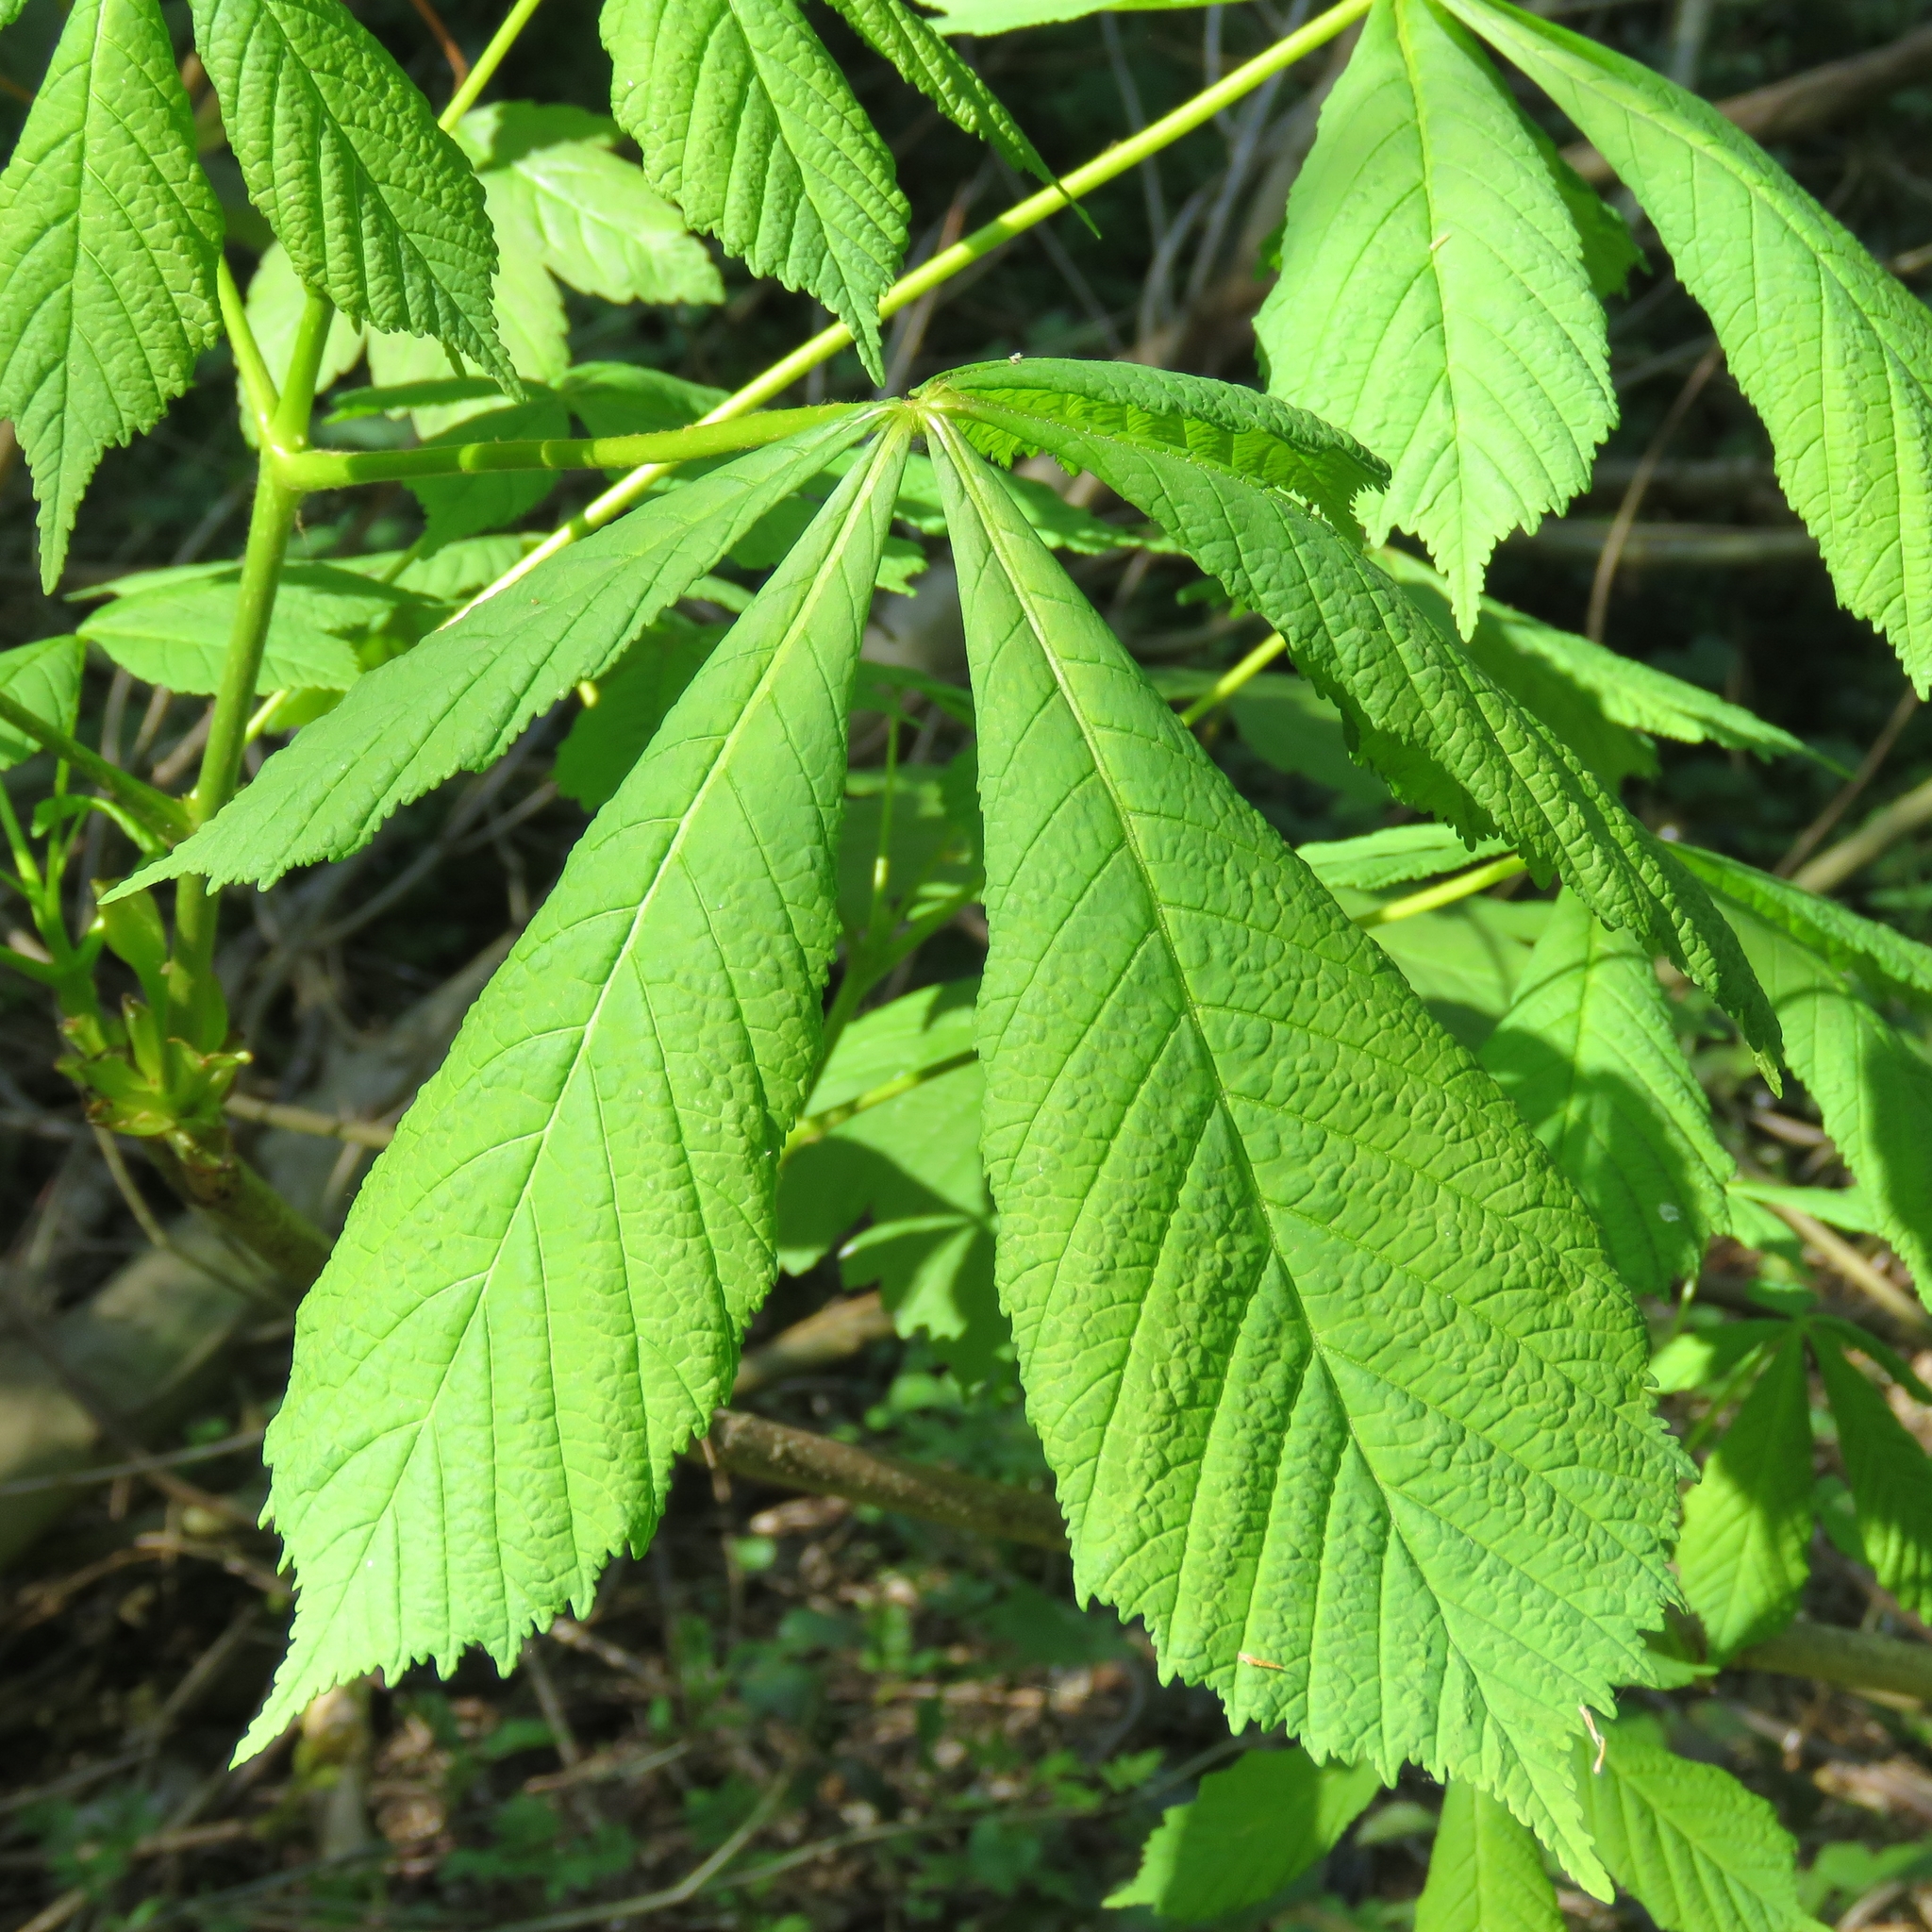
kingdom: Plantae
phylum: Tracheophyta
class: Magnoliopsida
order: Sapindales
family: Sapindaceae
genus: Aesculus
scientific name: Aesculus hippocastanum
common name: Horse-chestnut
